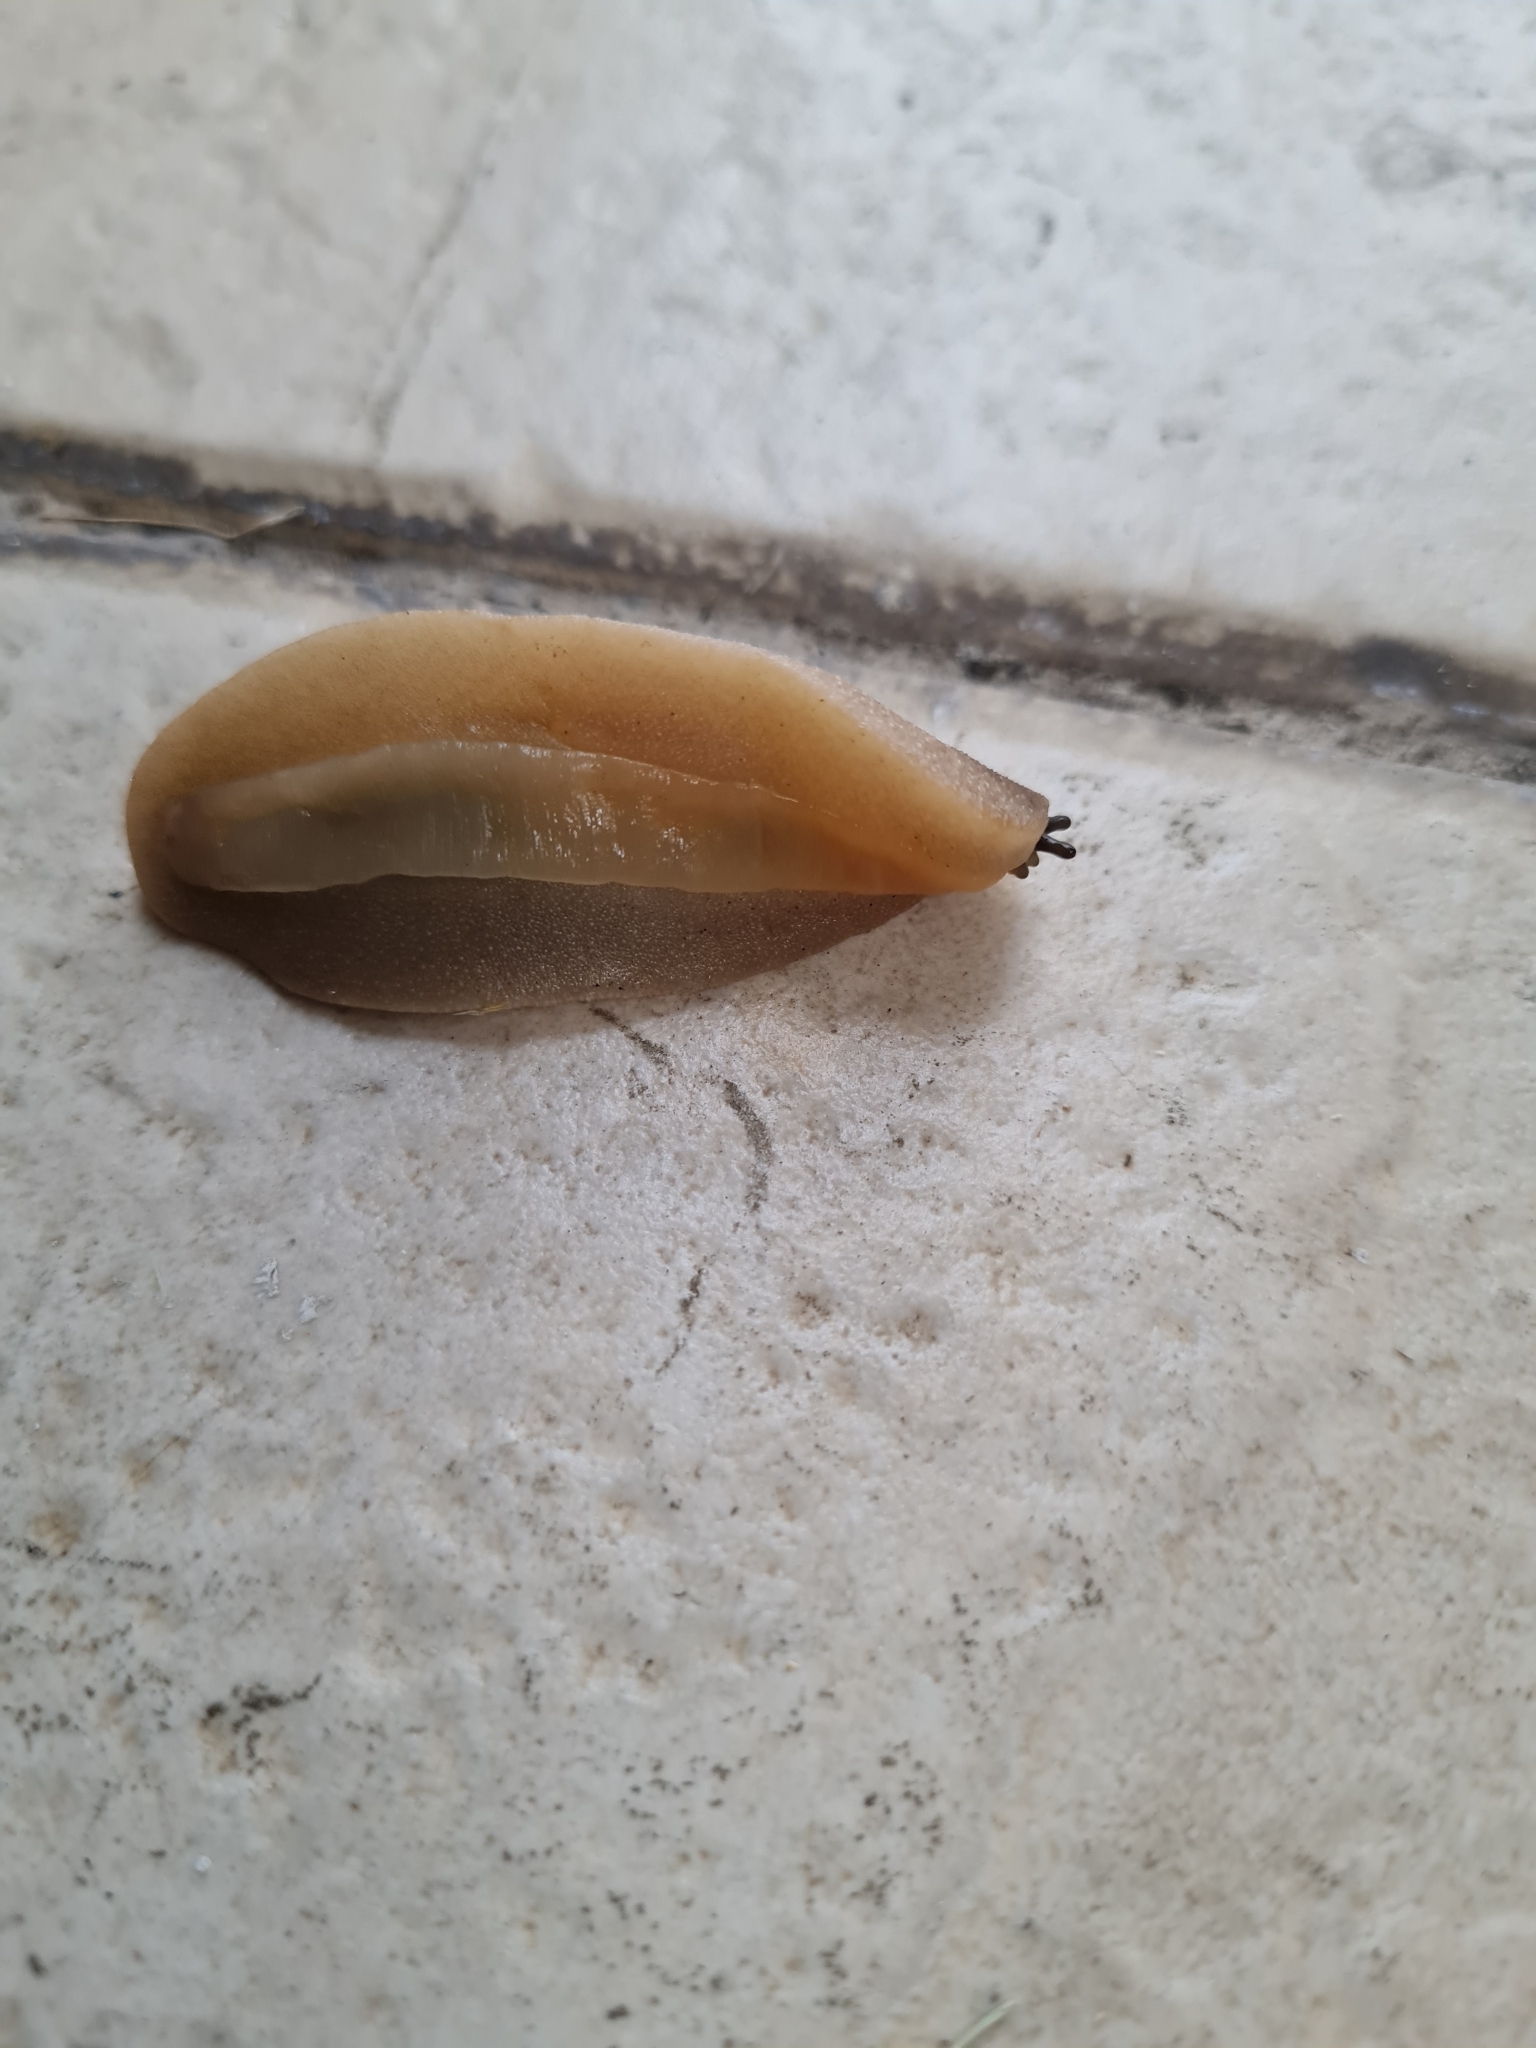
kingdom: Animalia
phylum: Mollusca
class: Gastropoda
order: Systellommatophora
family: Veronicellidae
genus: Leidyula
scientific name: Leidyula moreleti
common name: Tan leatherleaf
